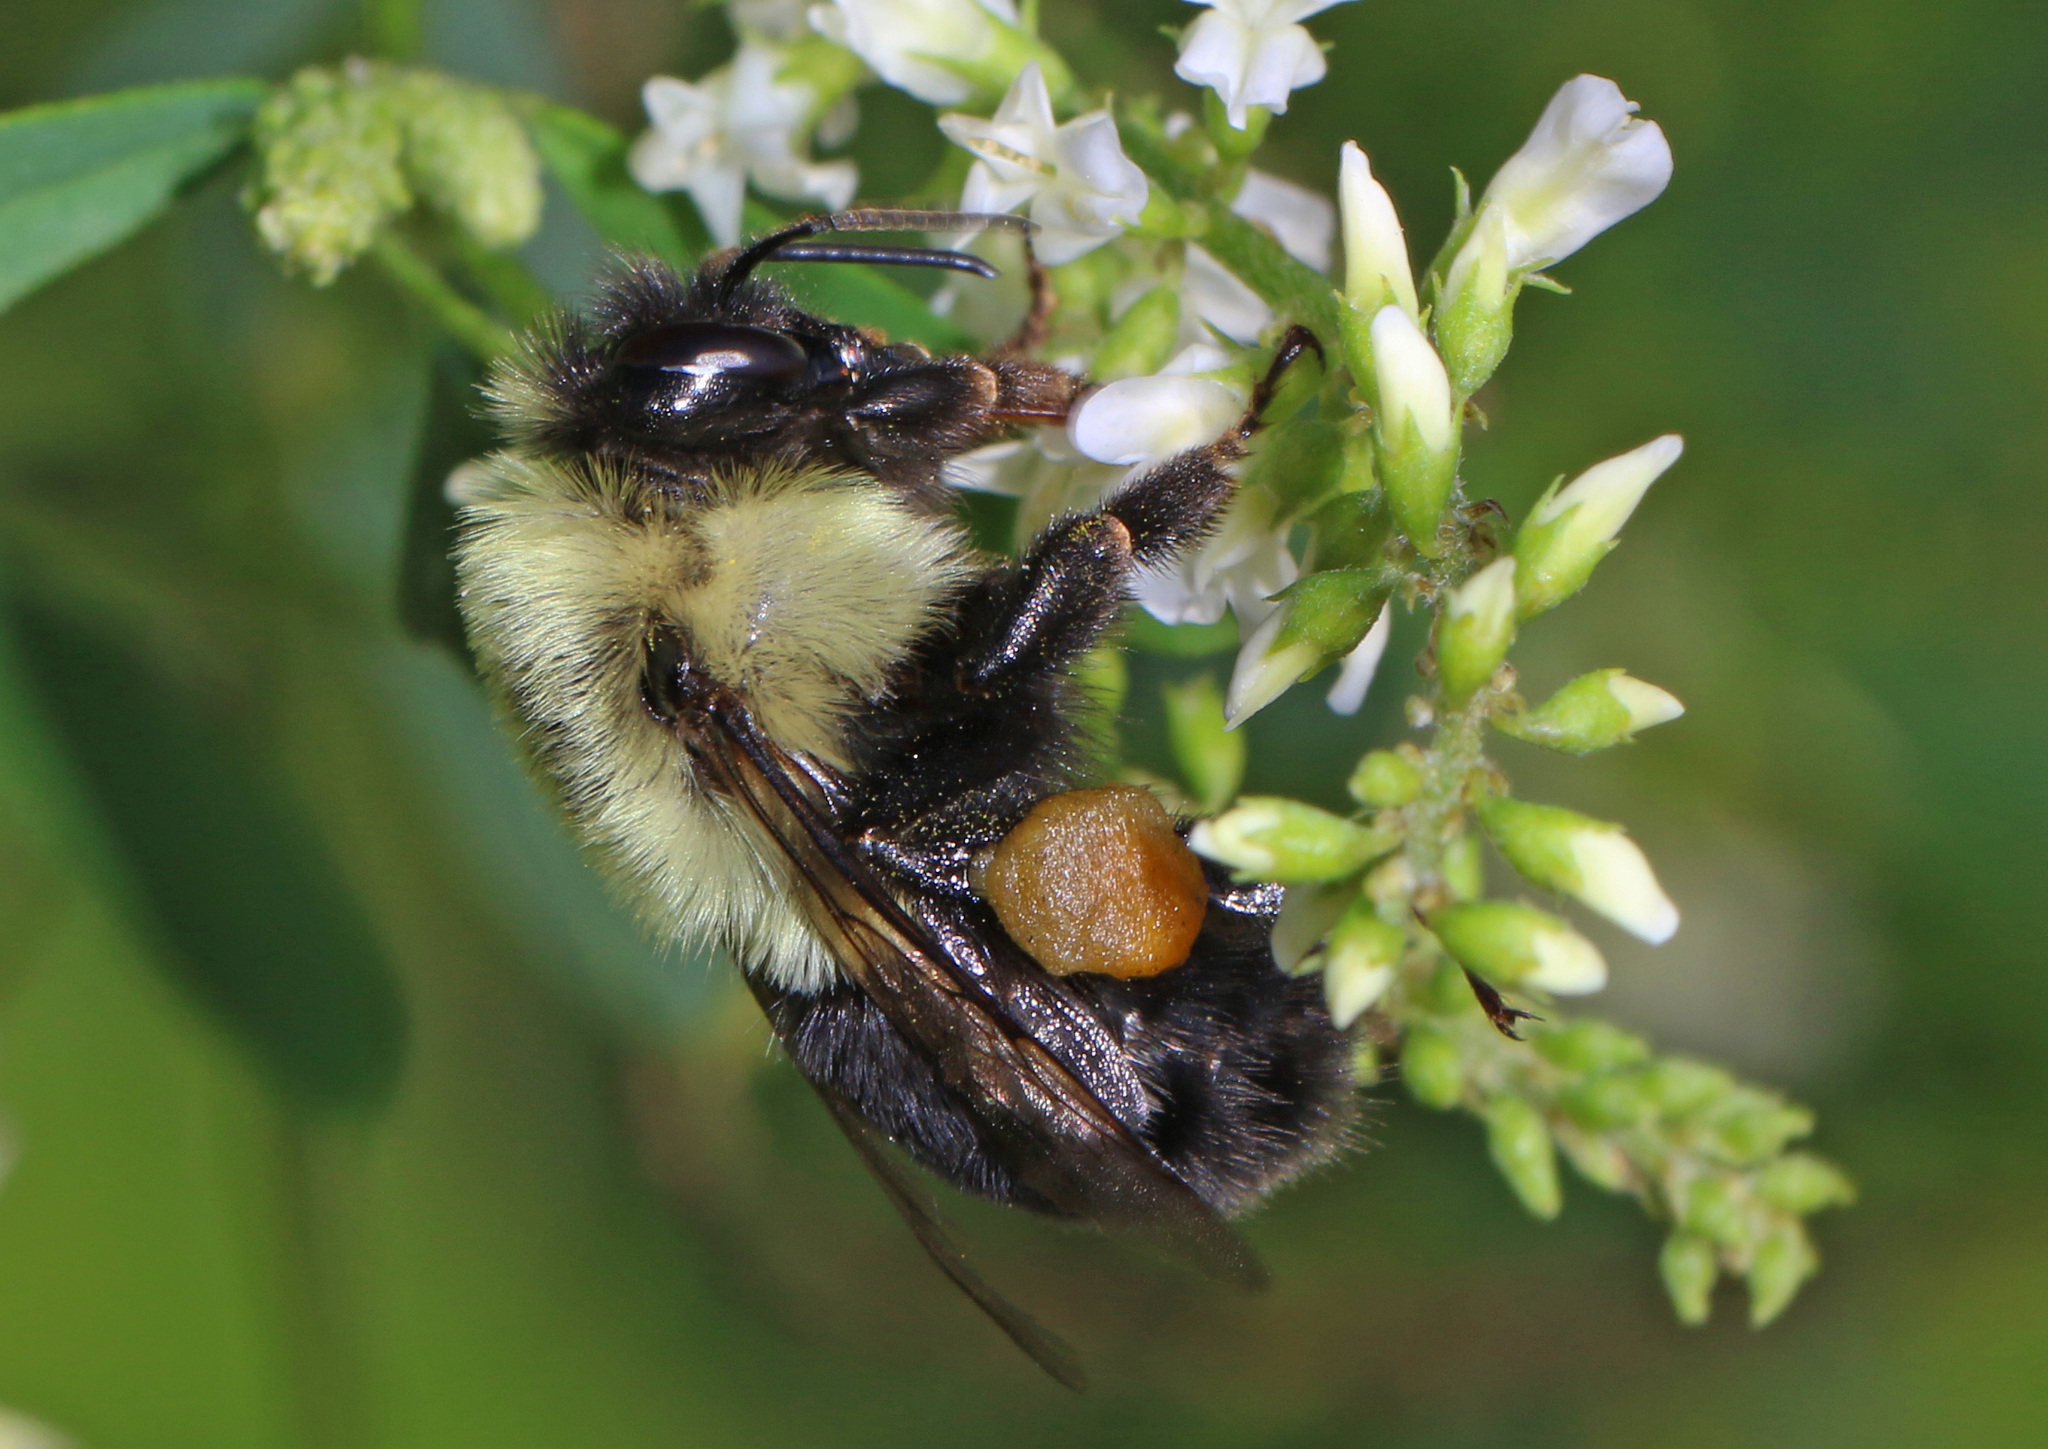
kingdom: Animalia
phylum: Arthropoda
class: Insecta
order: Hymenoptera
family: Apidae
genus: Bombus
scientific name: Bombus impatiens
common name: Common eastern bumble bee
